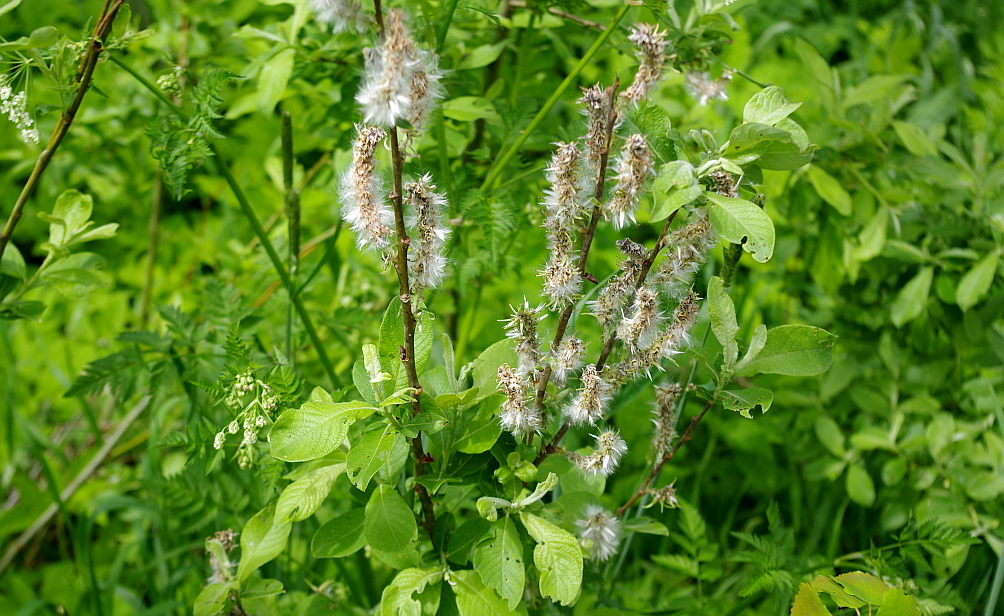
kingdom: Plantae
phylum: Tracheophyta
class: Magnoliopsida
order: Malpighiales
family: Salicaceae
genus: Salix
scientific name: Salix caprea
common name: Goat willow
